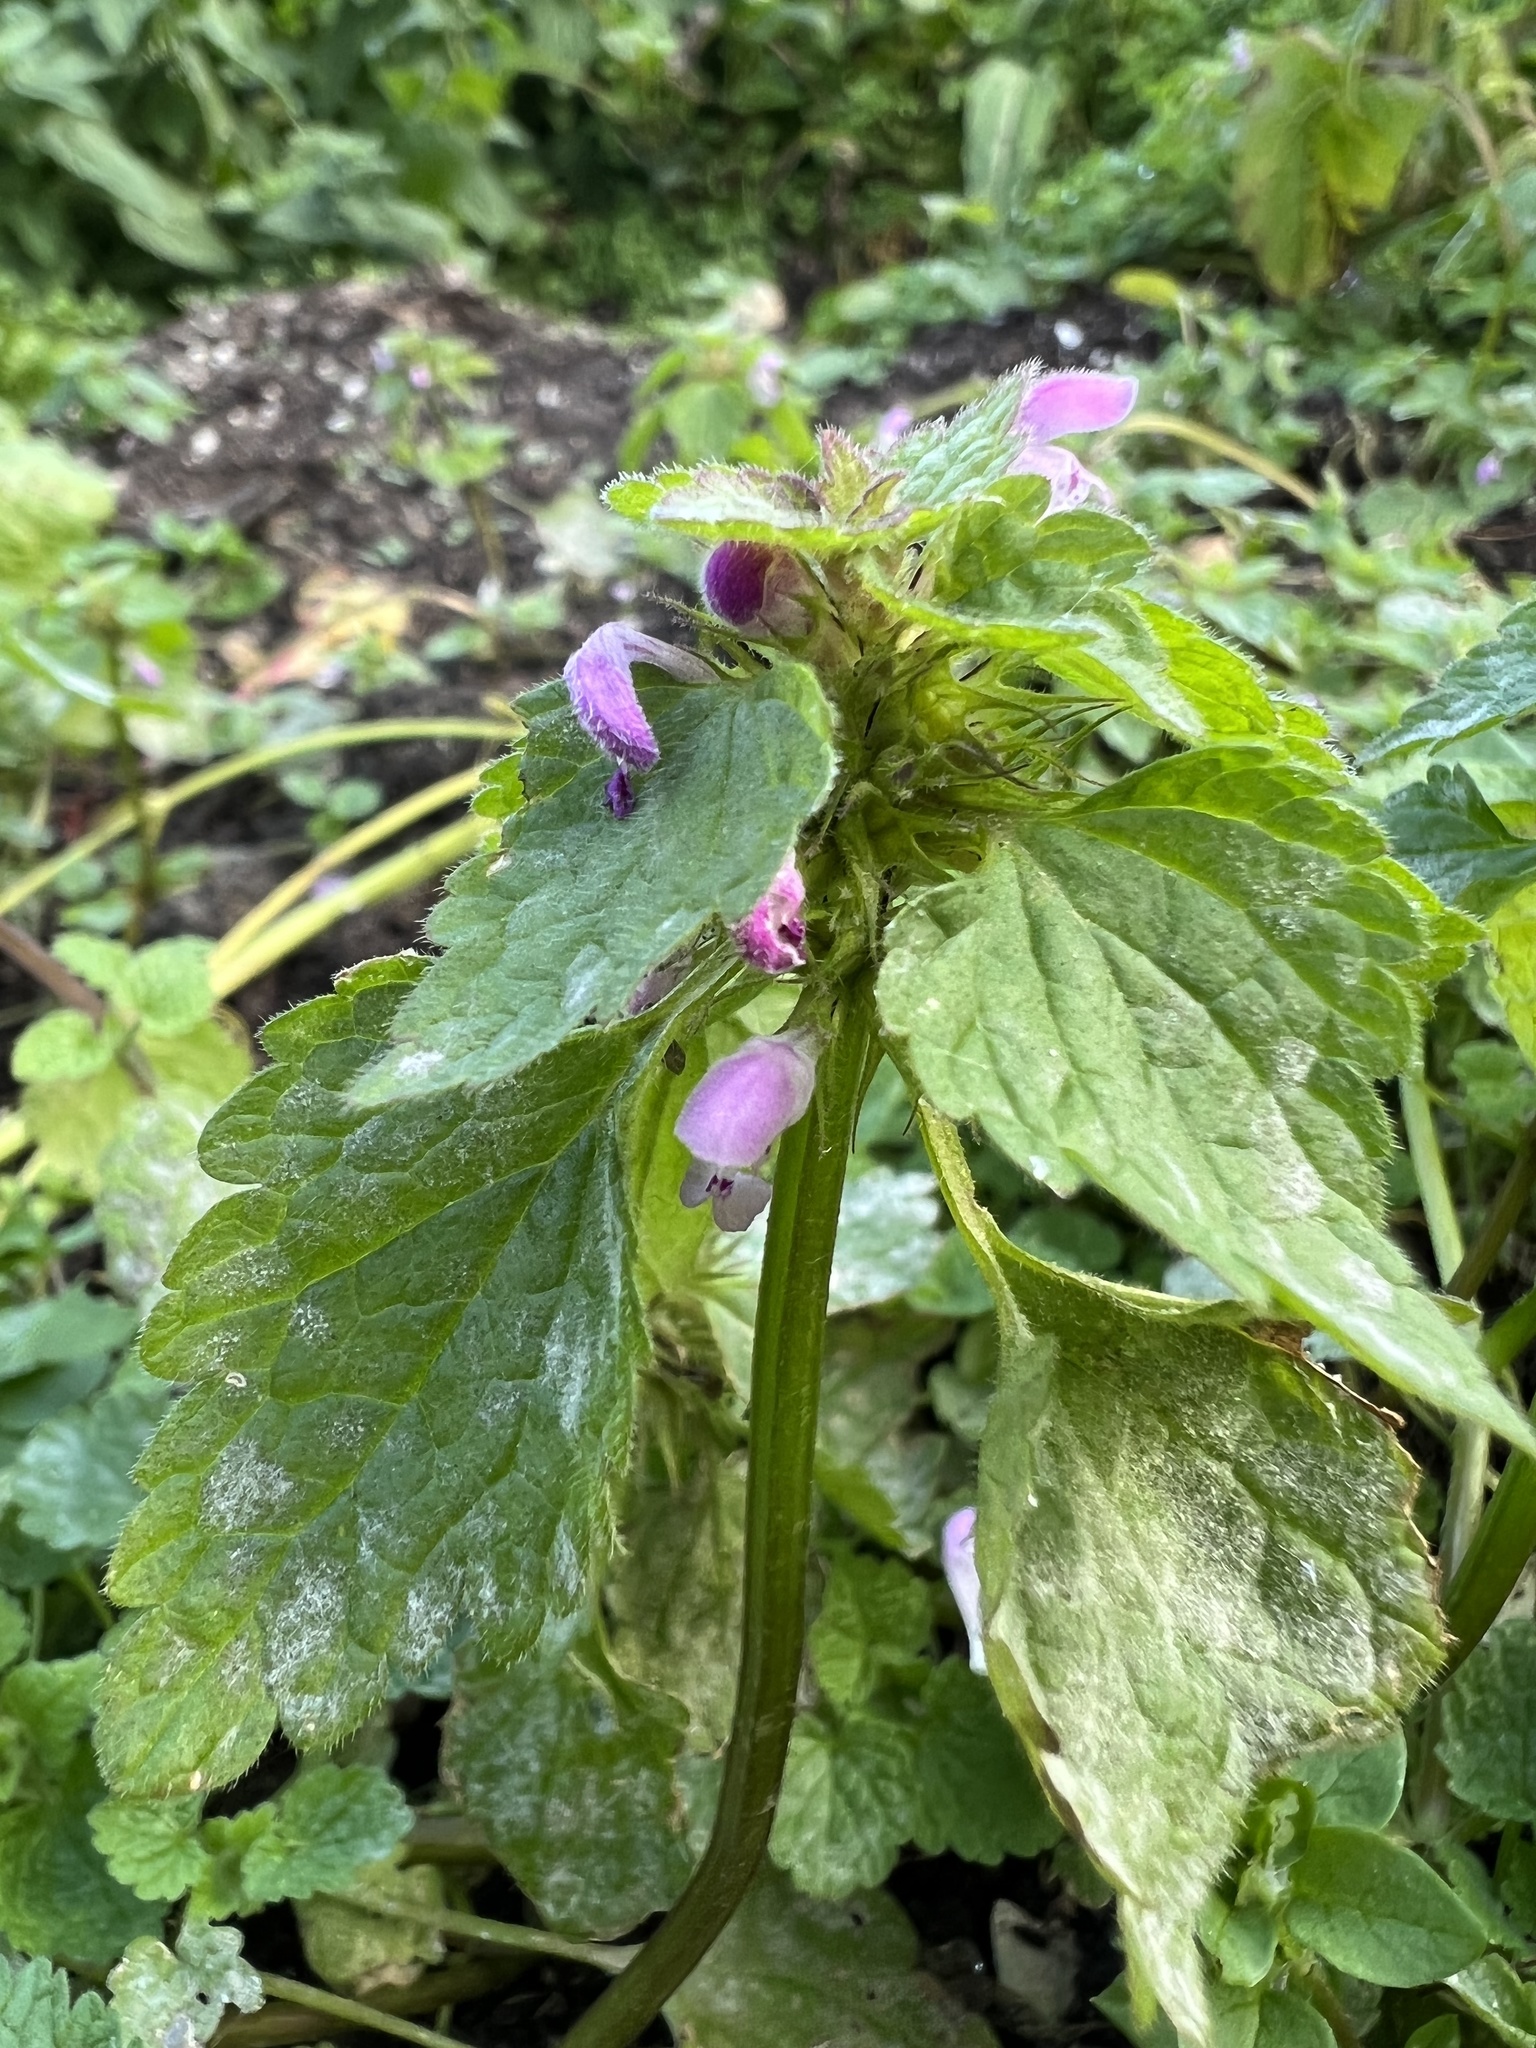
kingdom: Plantae
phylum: Tracheophyta
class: Magnoliopsida
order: Lamiales
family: Lamiaceae
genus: Lamium
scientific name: Lamium purpureum
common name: Red dead-nettle
